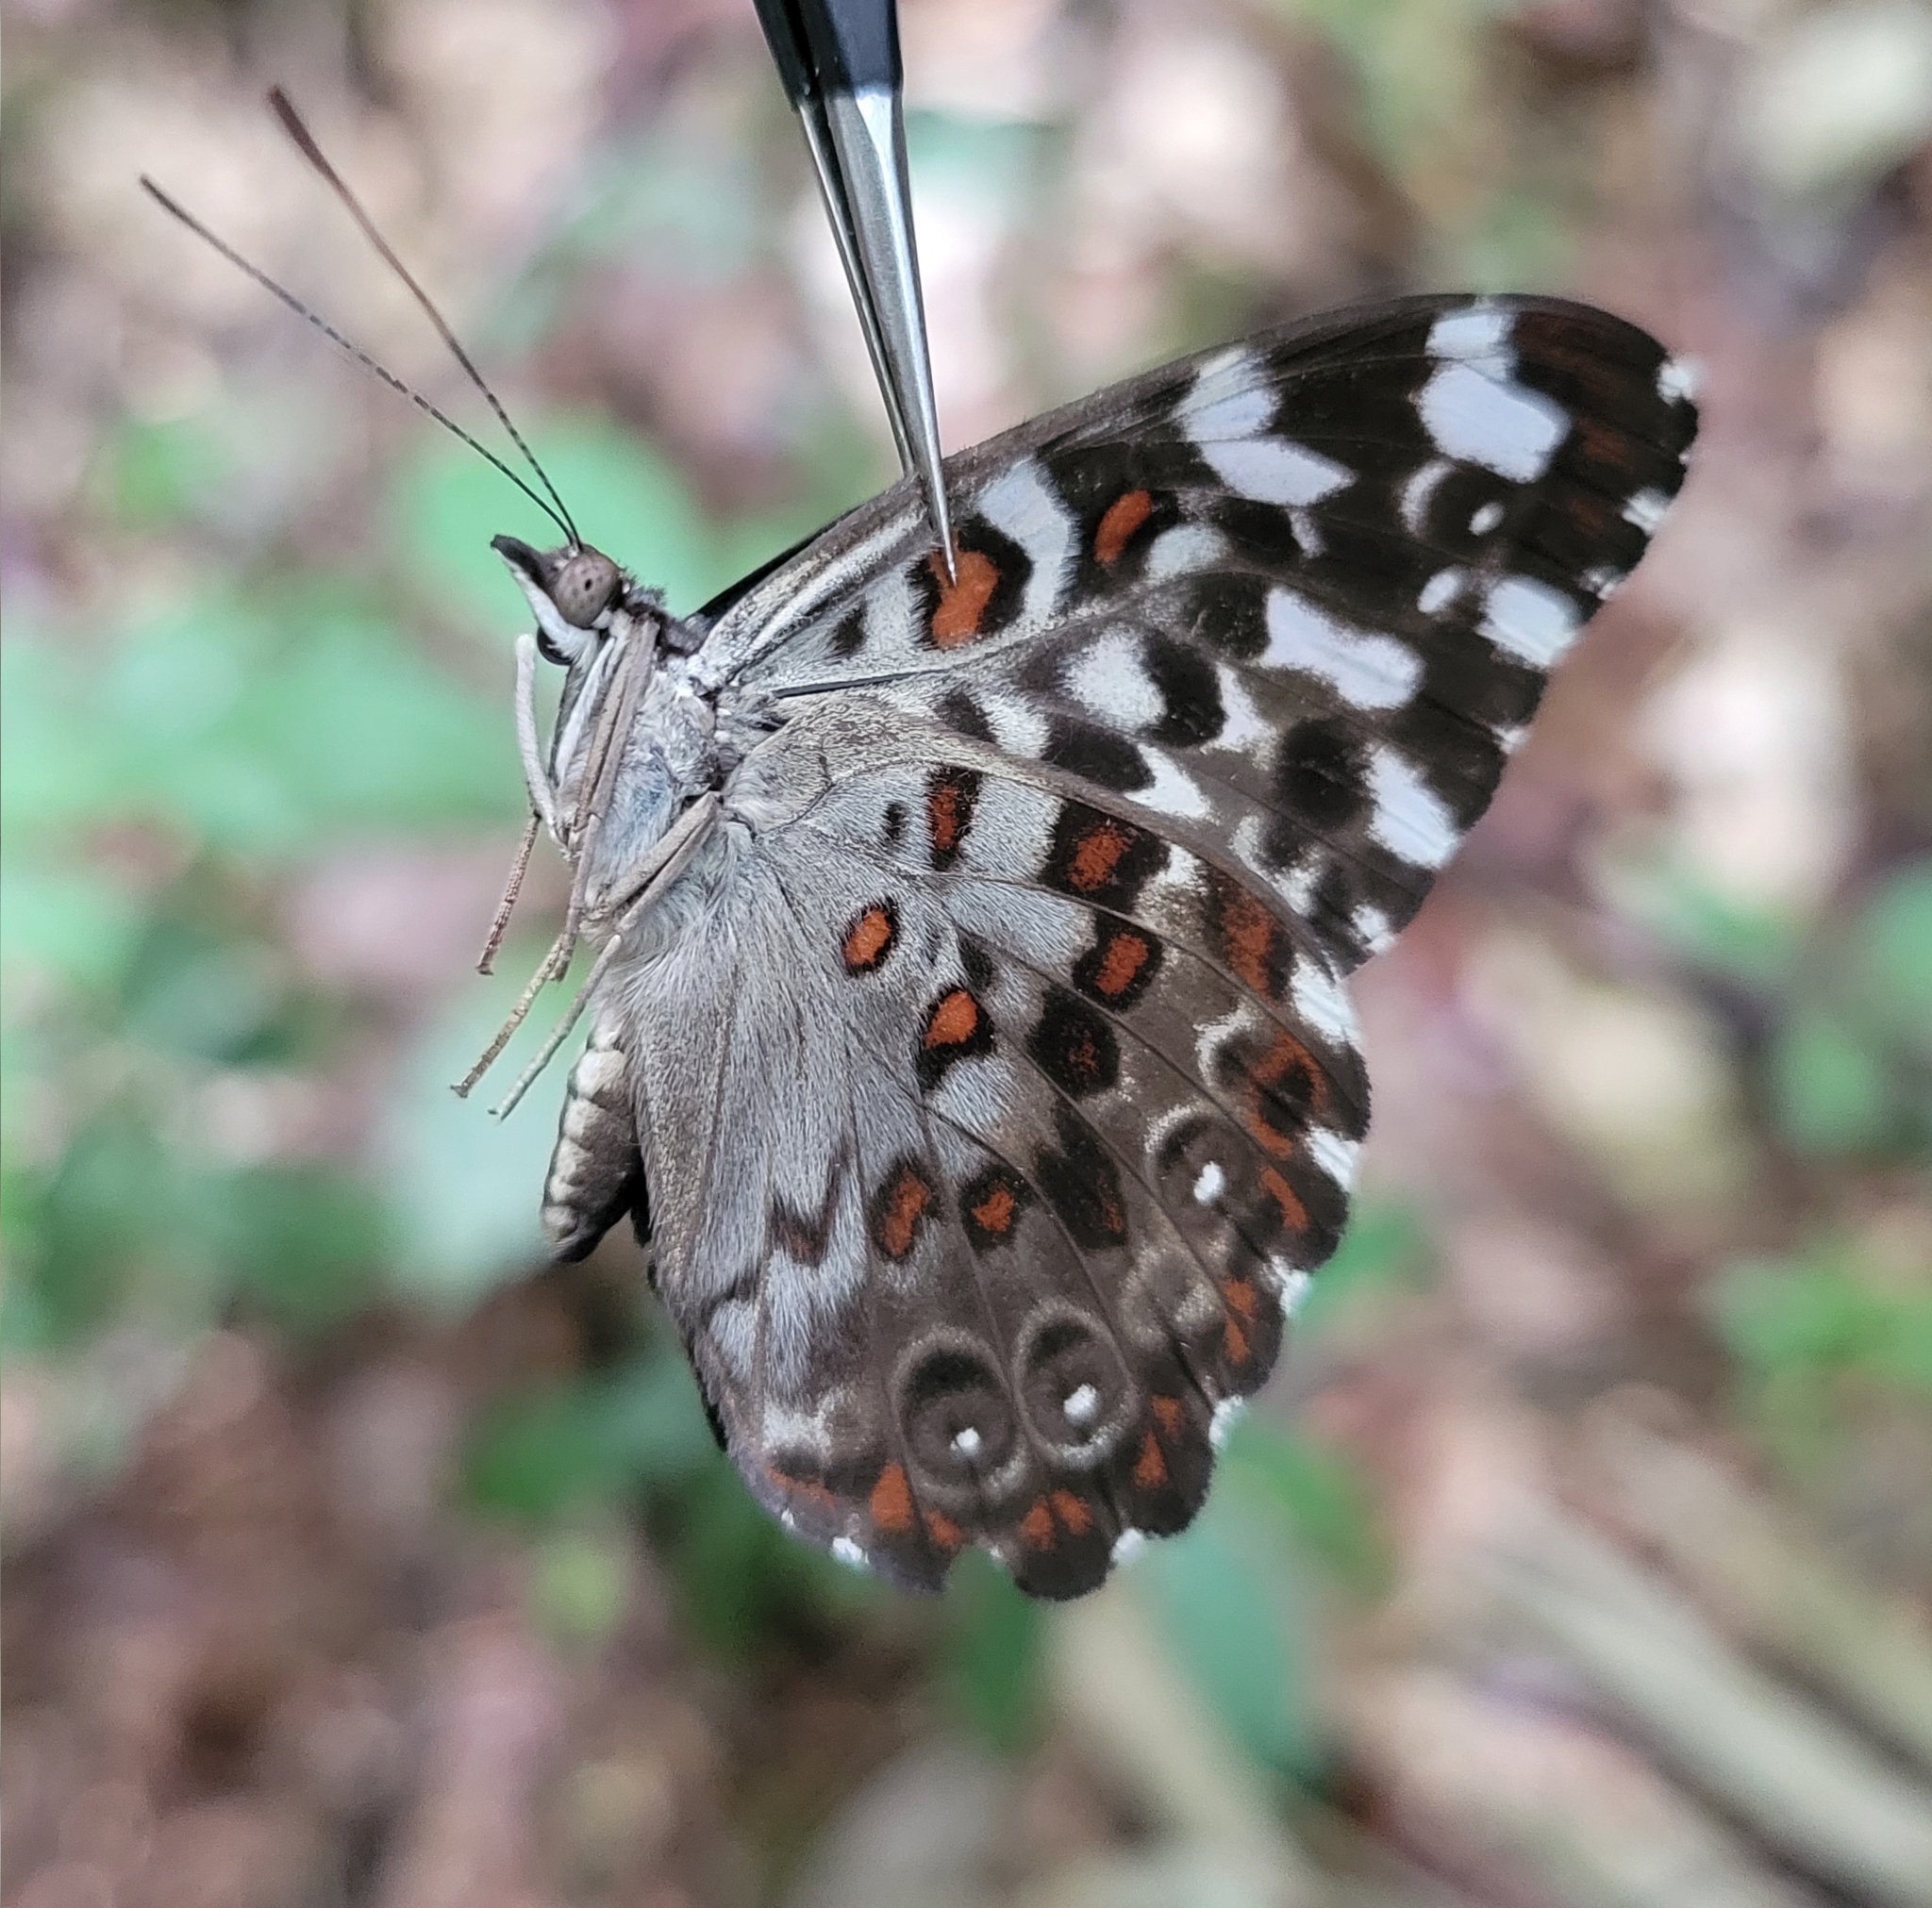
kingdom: Animalia
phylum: Arthropoda
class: Insecta
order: Lepidoptera
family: Nymphalidae
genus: Hamadryas
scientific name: Hamadryas chloe
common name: Amazon cracker
